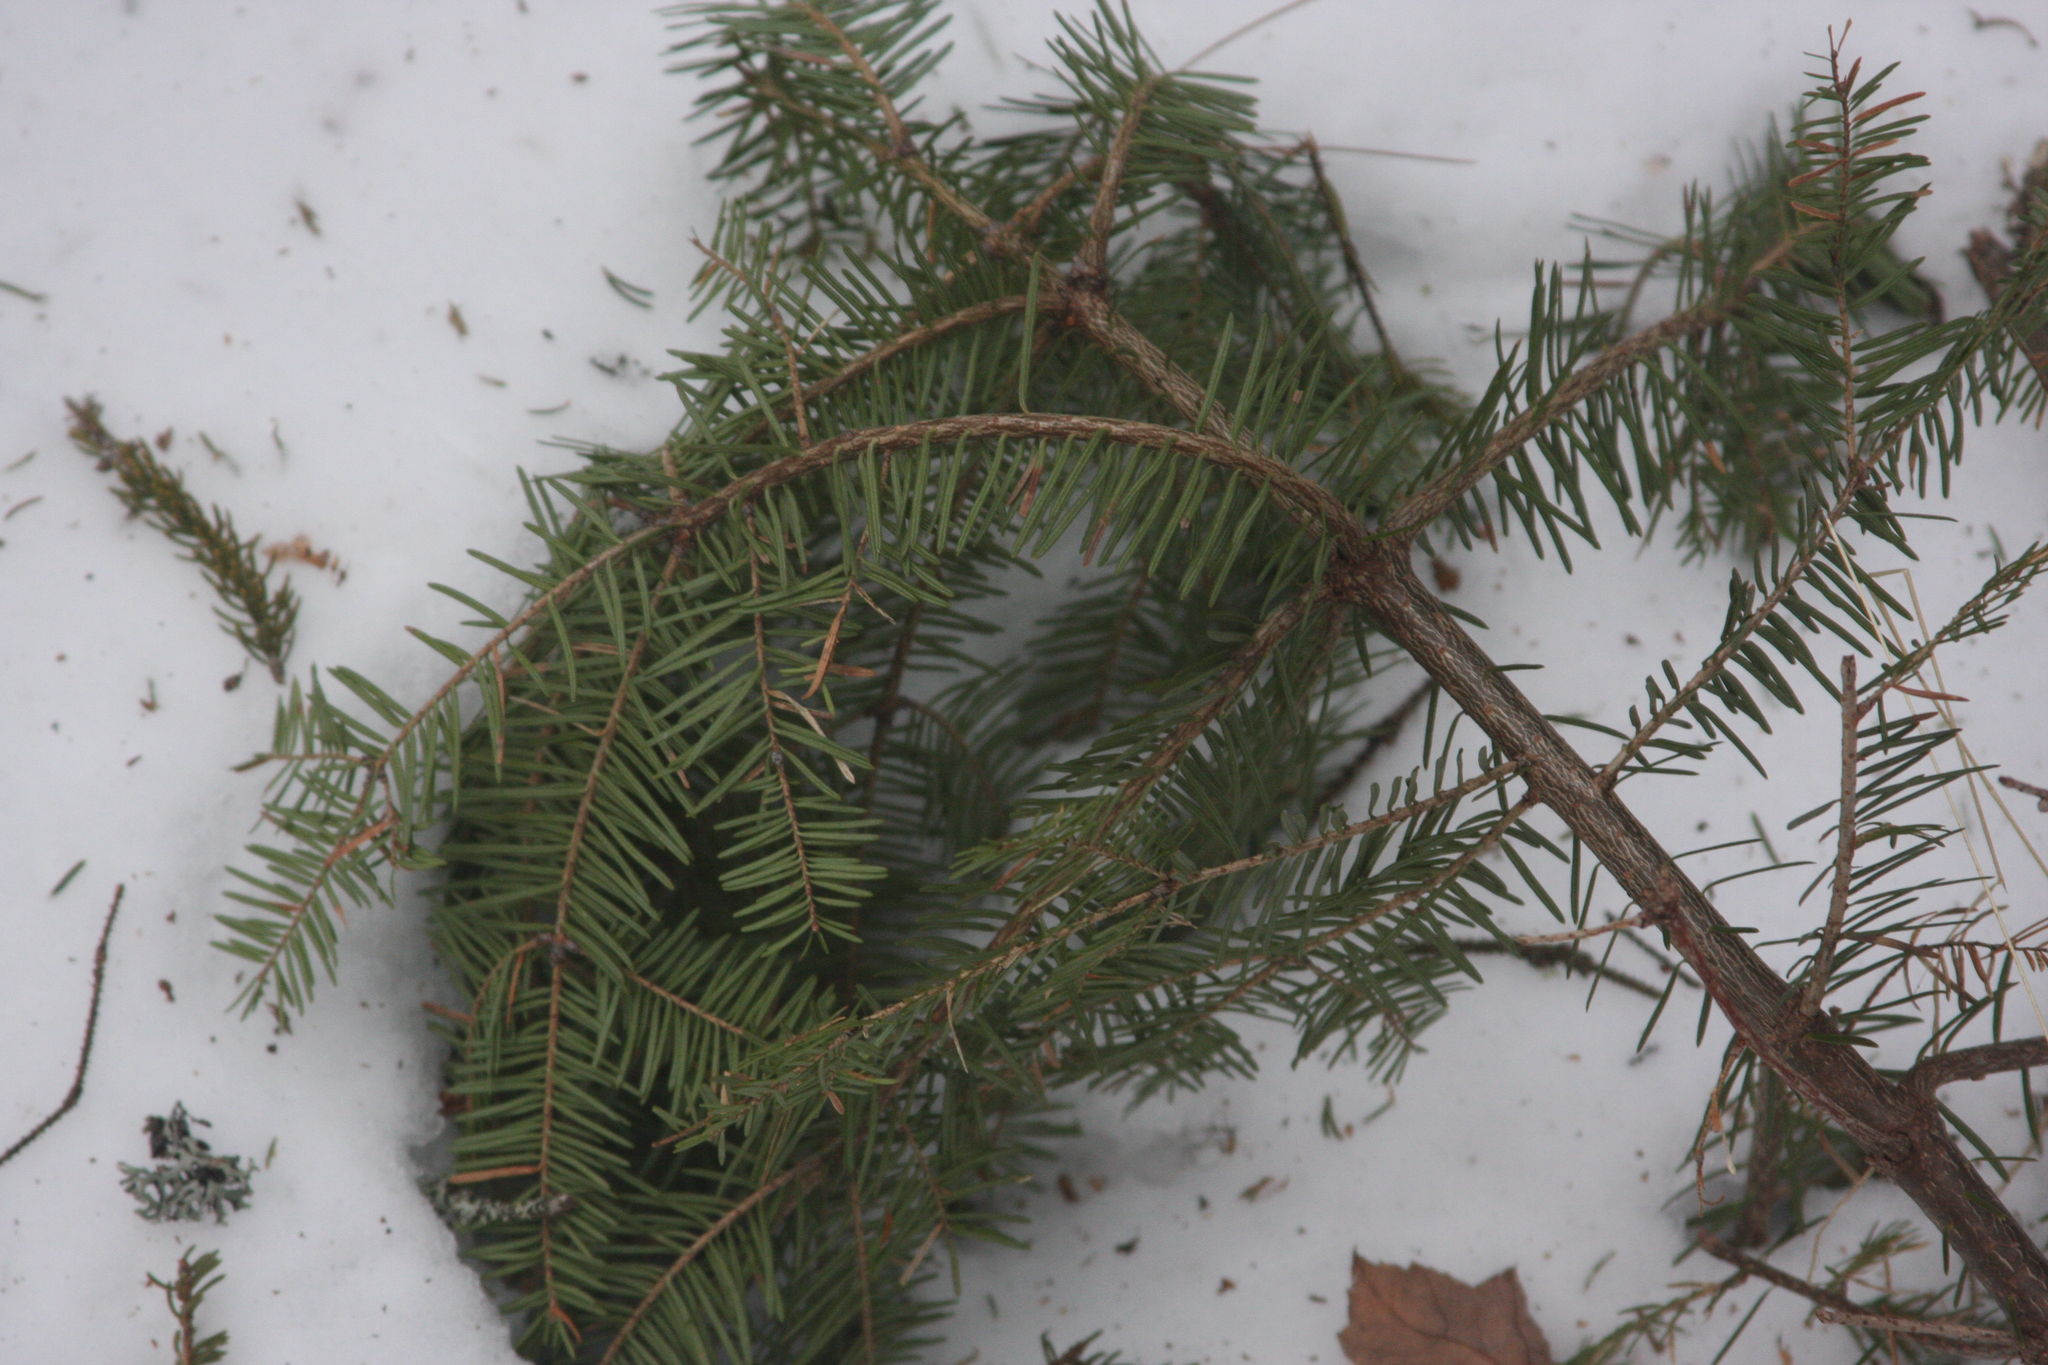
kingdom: Plantae
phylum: Tracheophyta
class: Pinopsida
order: Pinales
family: Pinaceae
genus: Abies
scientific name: Abies balsamea
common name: Balsam fir
